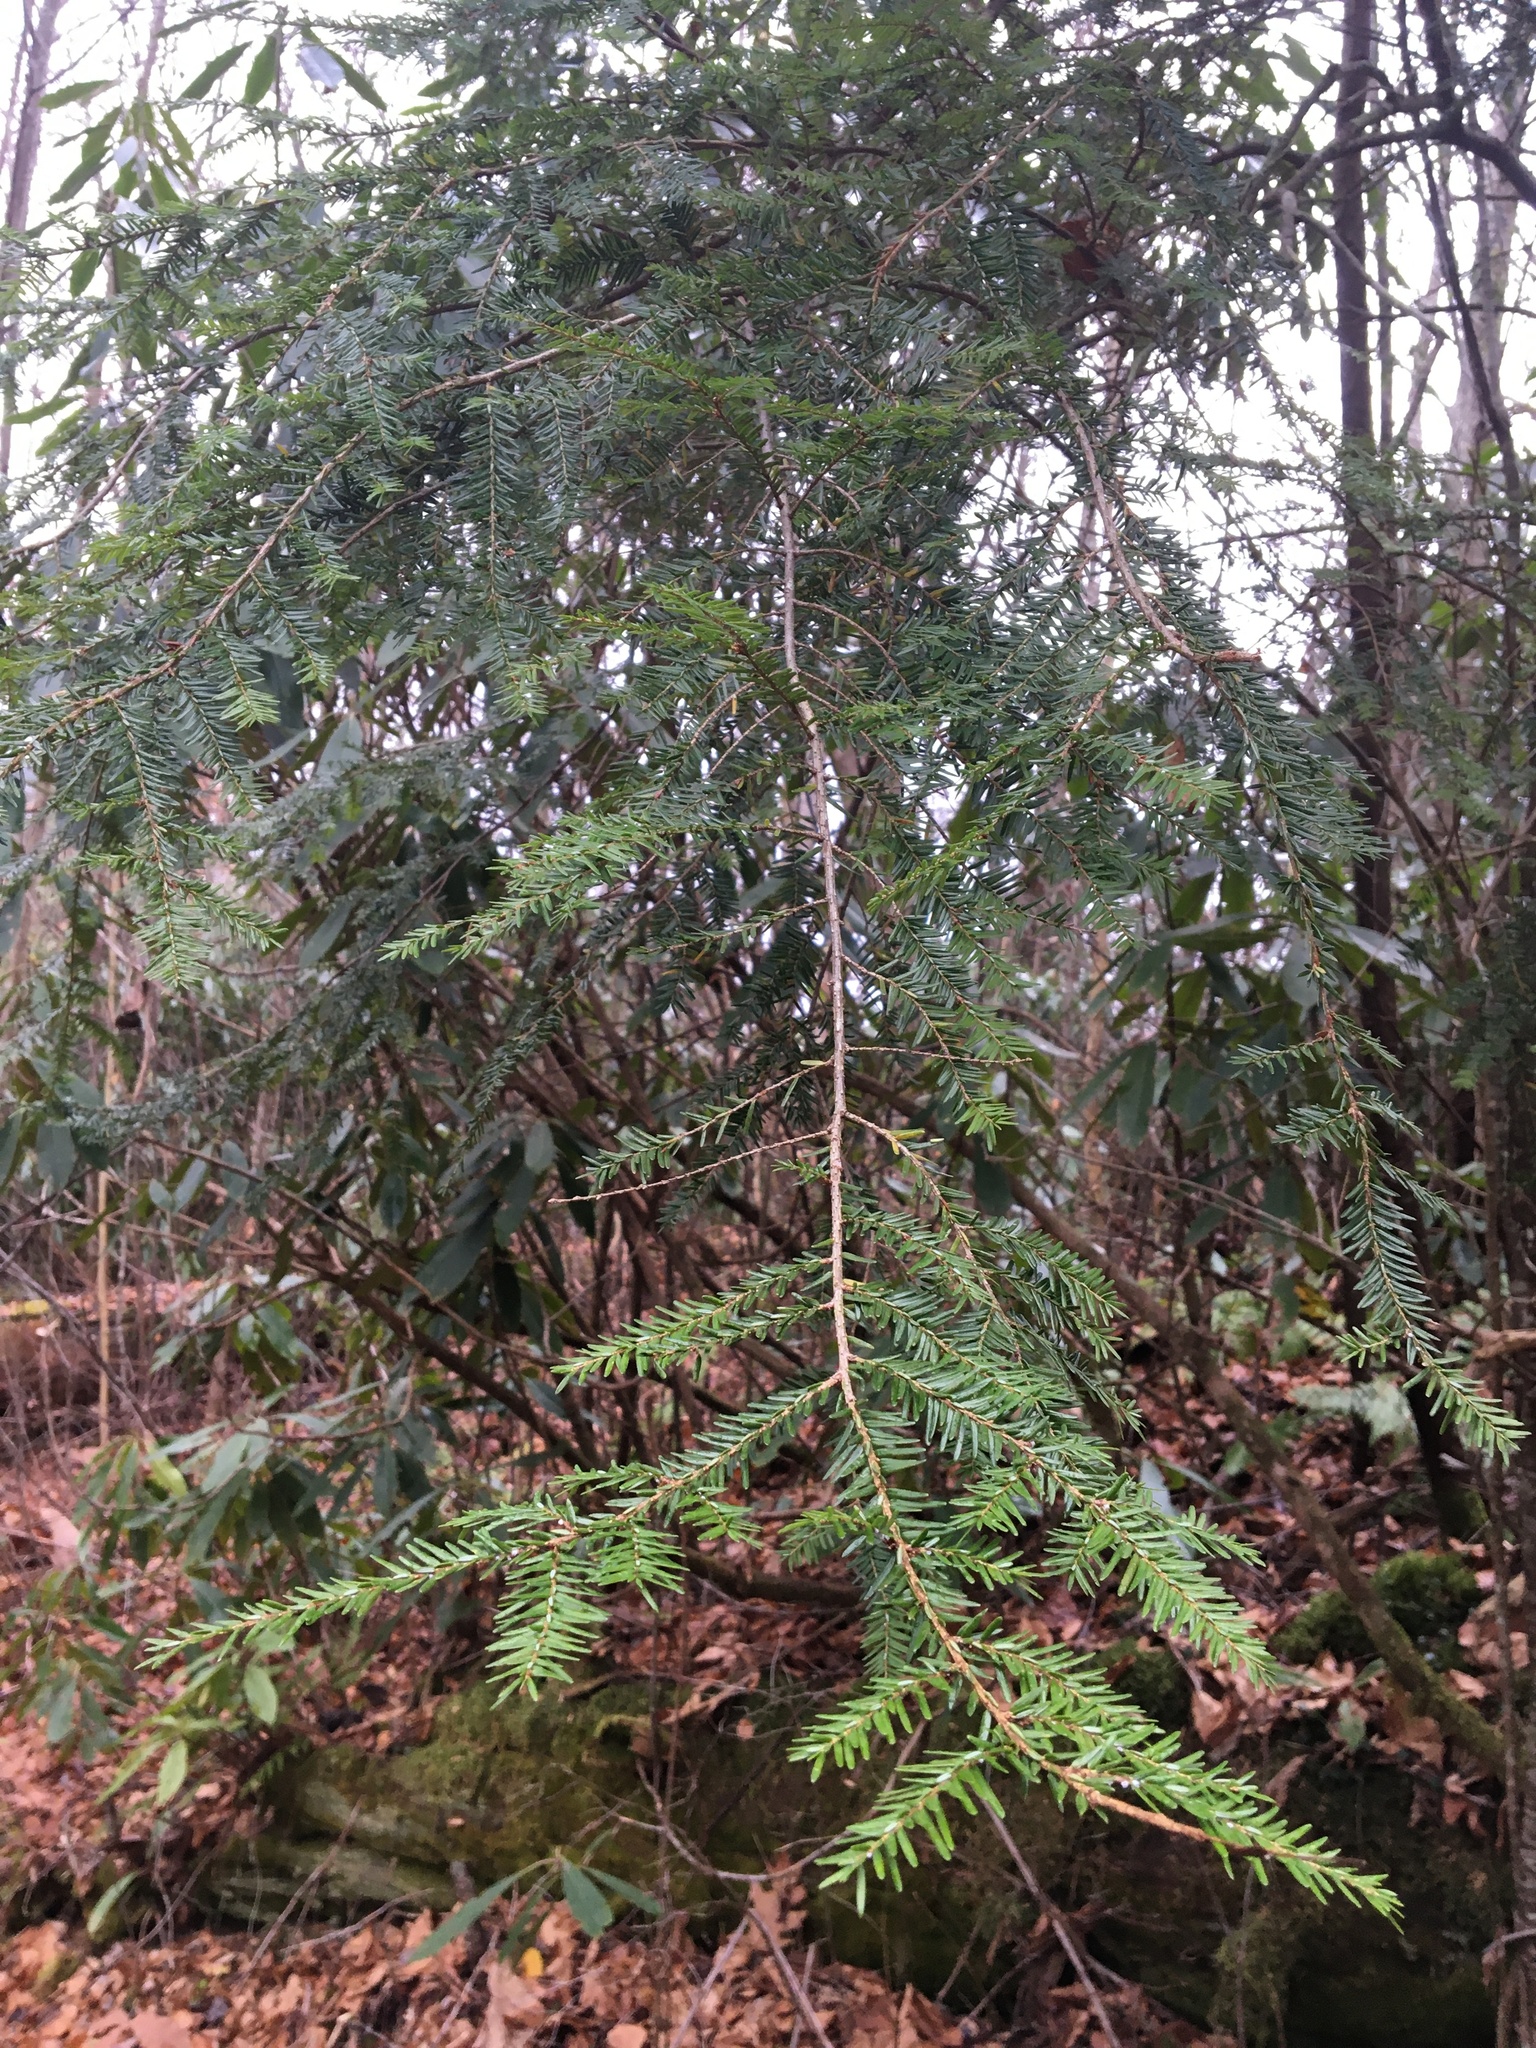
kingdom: Plantae
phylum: Tracheophyta
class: Pinopsida
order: Pinales
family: Pinaceae
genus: Tsuga
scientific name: Tsuga canadensis
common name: Eastern hemlock
